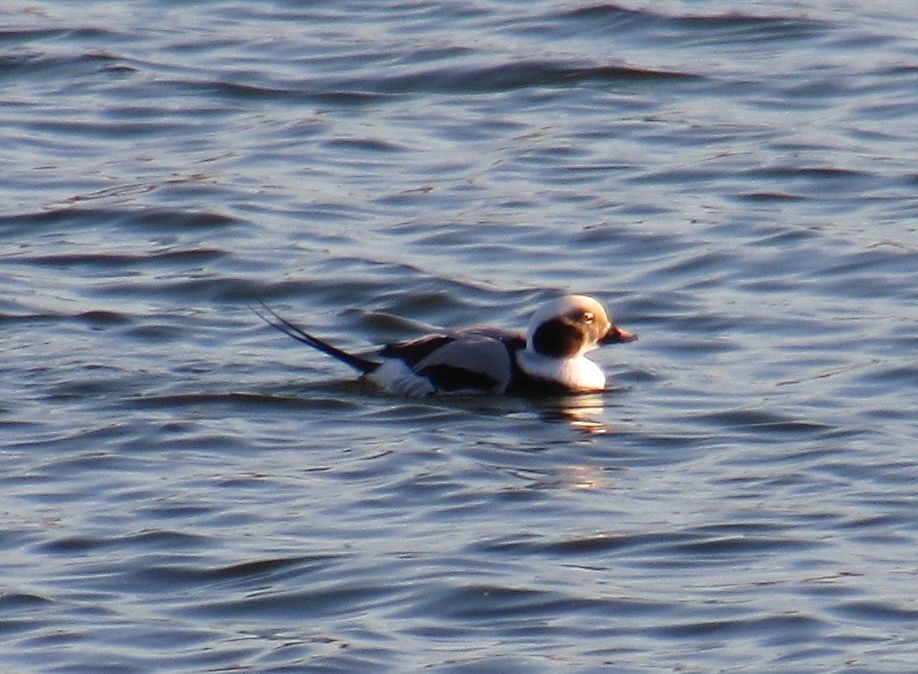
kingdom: Animalia
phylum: Chordata
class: Aves
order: Anseriformes
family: Anatidae
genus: Clangula
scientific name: Clangula hyemalis
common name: Long-tailed duck
